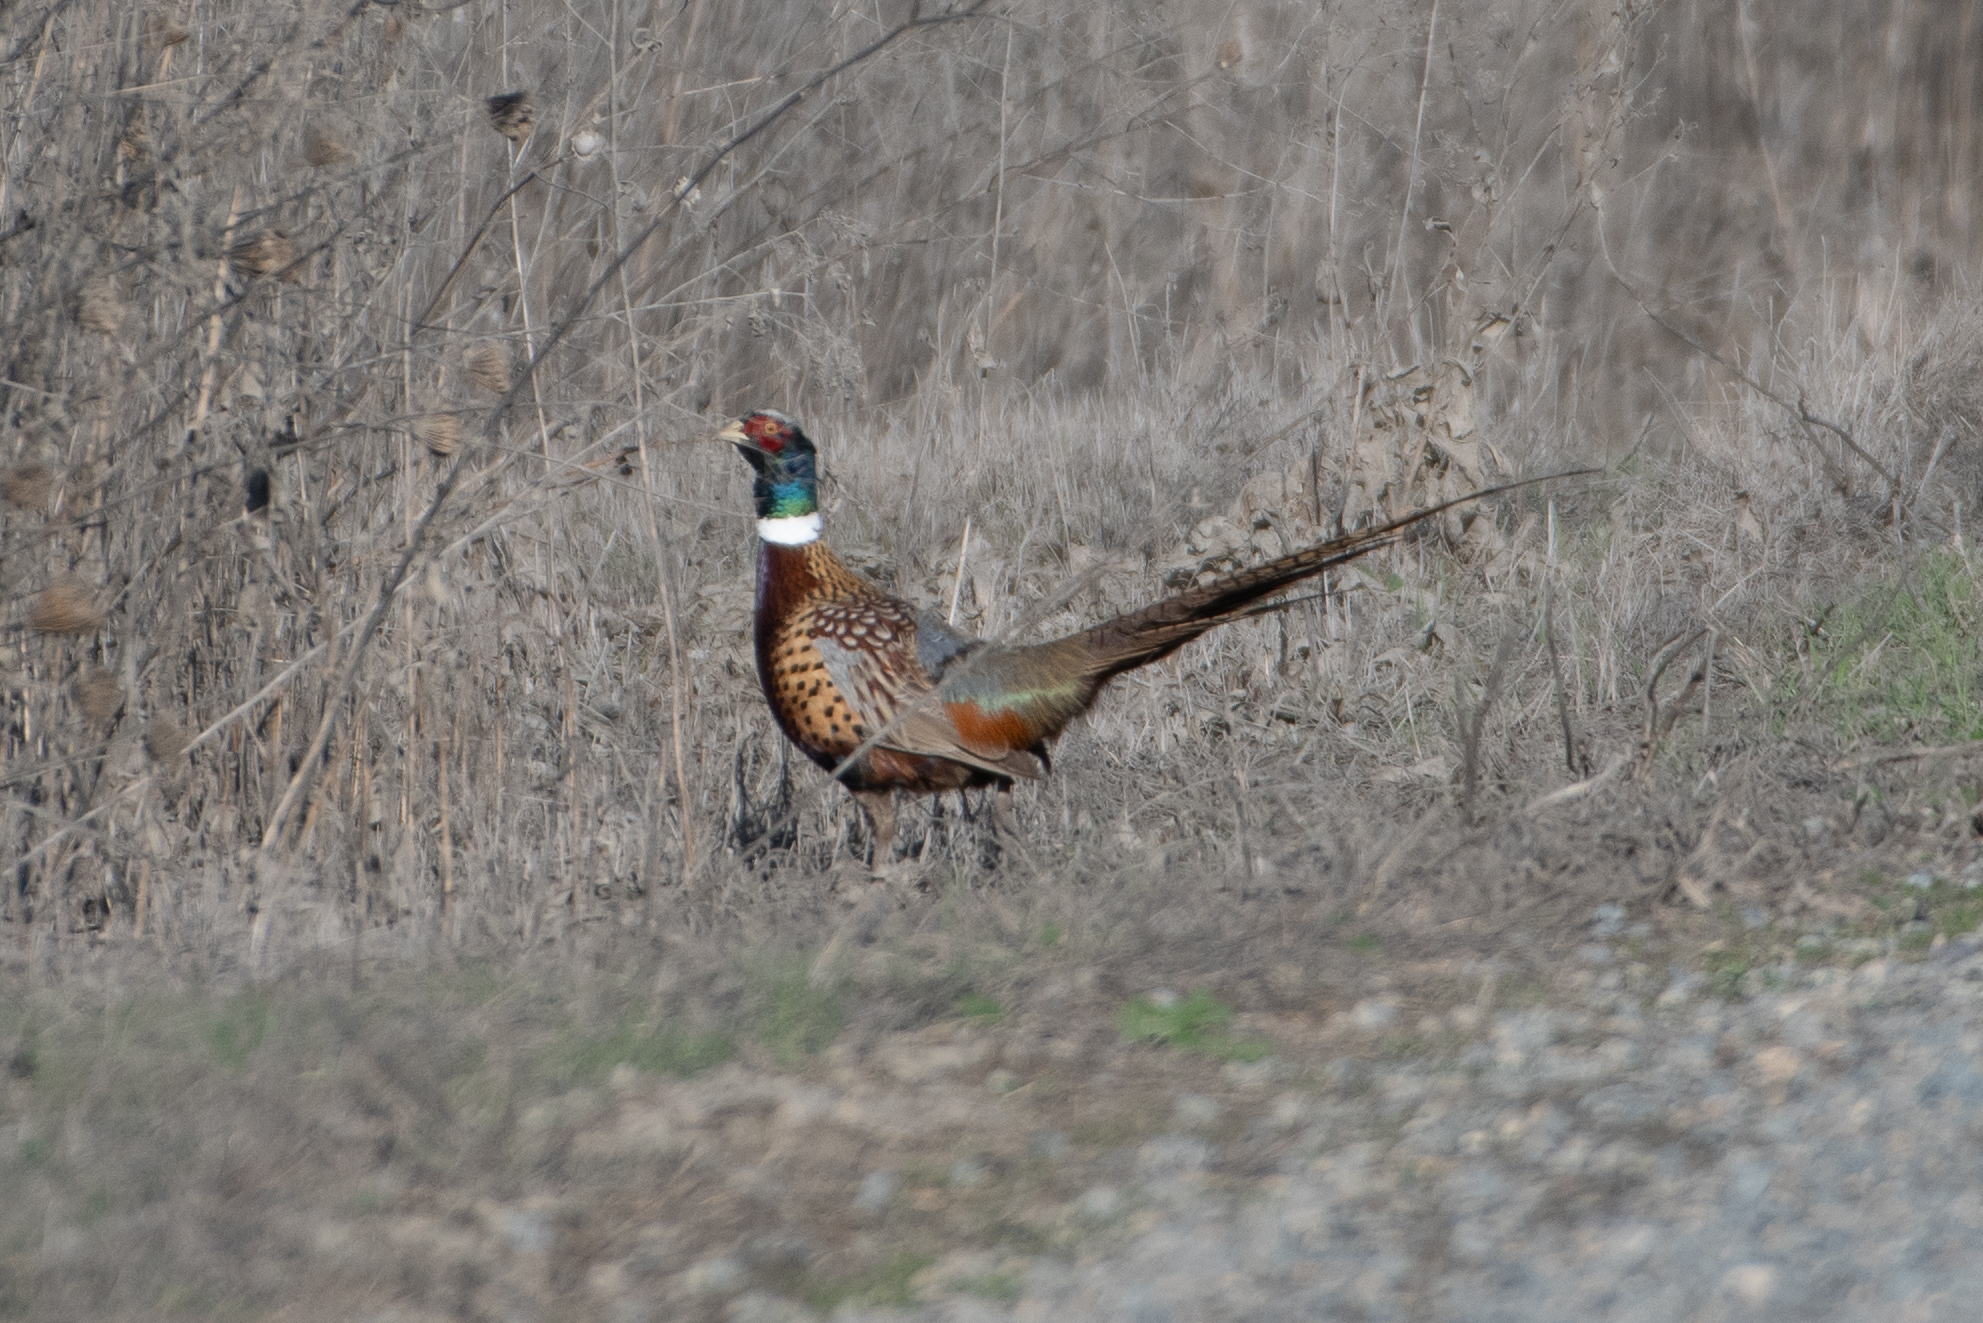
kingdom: Animalia
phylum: Chordata
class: Aves
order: Galliformes
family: Phasianidae
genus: Phasianus
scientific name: Phasianus colchicus
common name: Common pheasant
